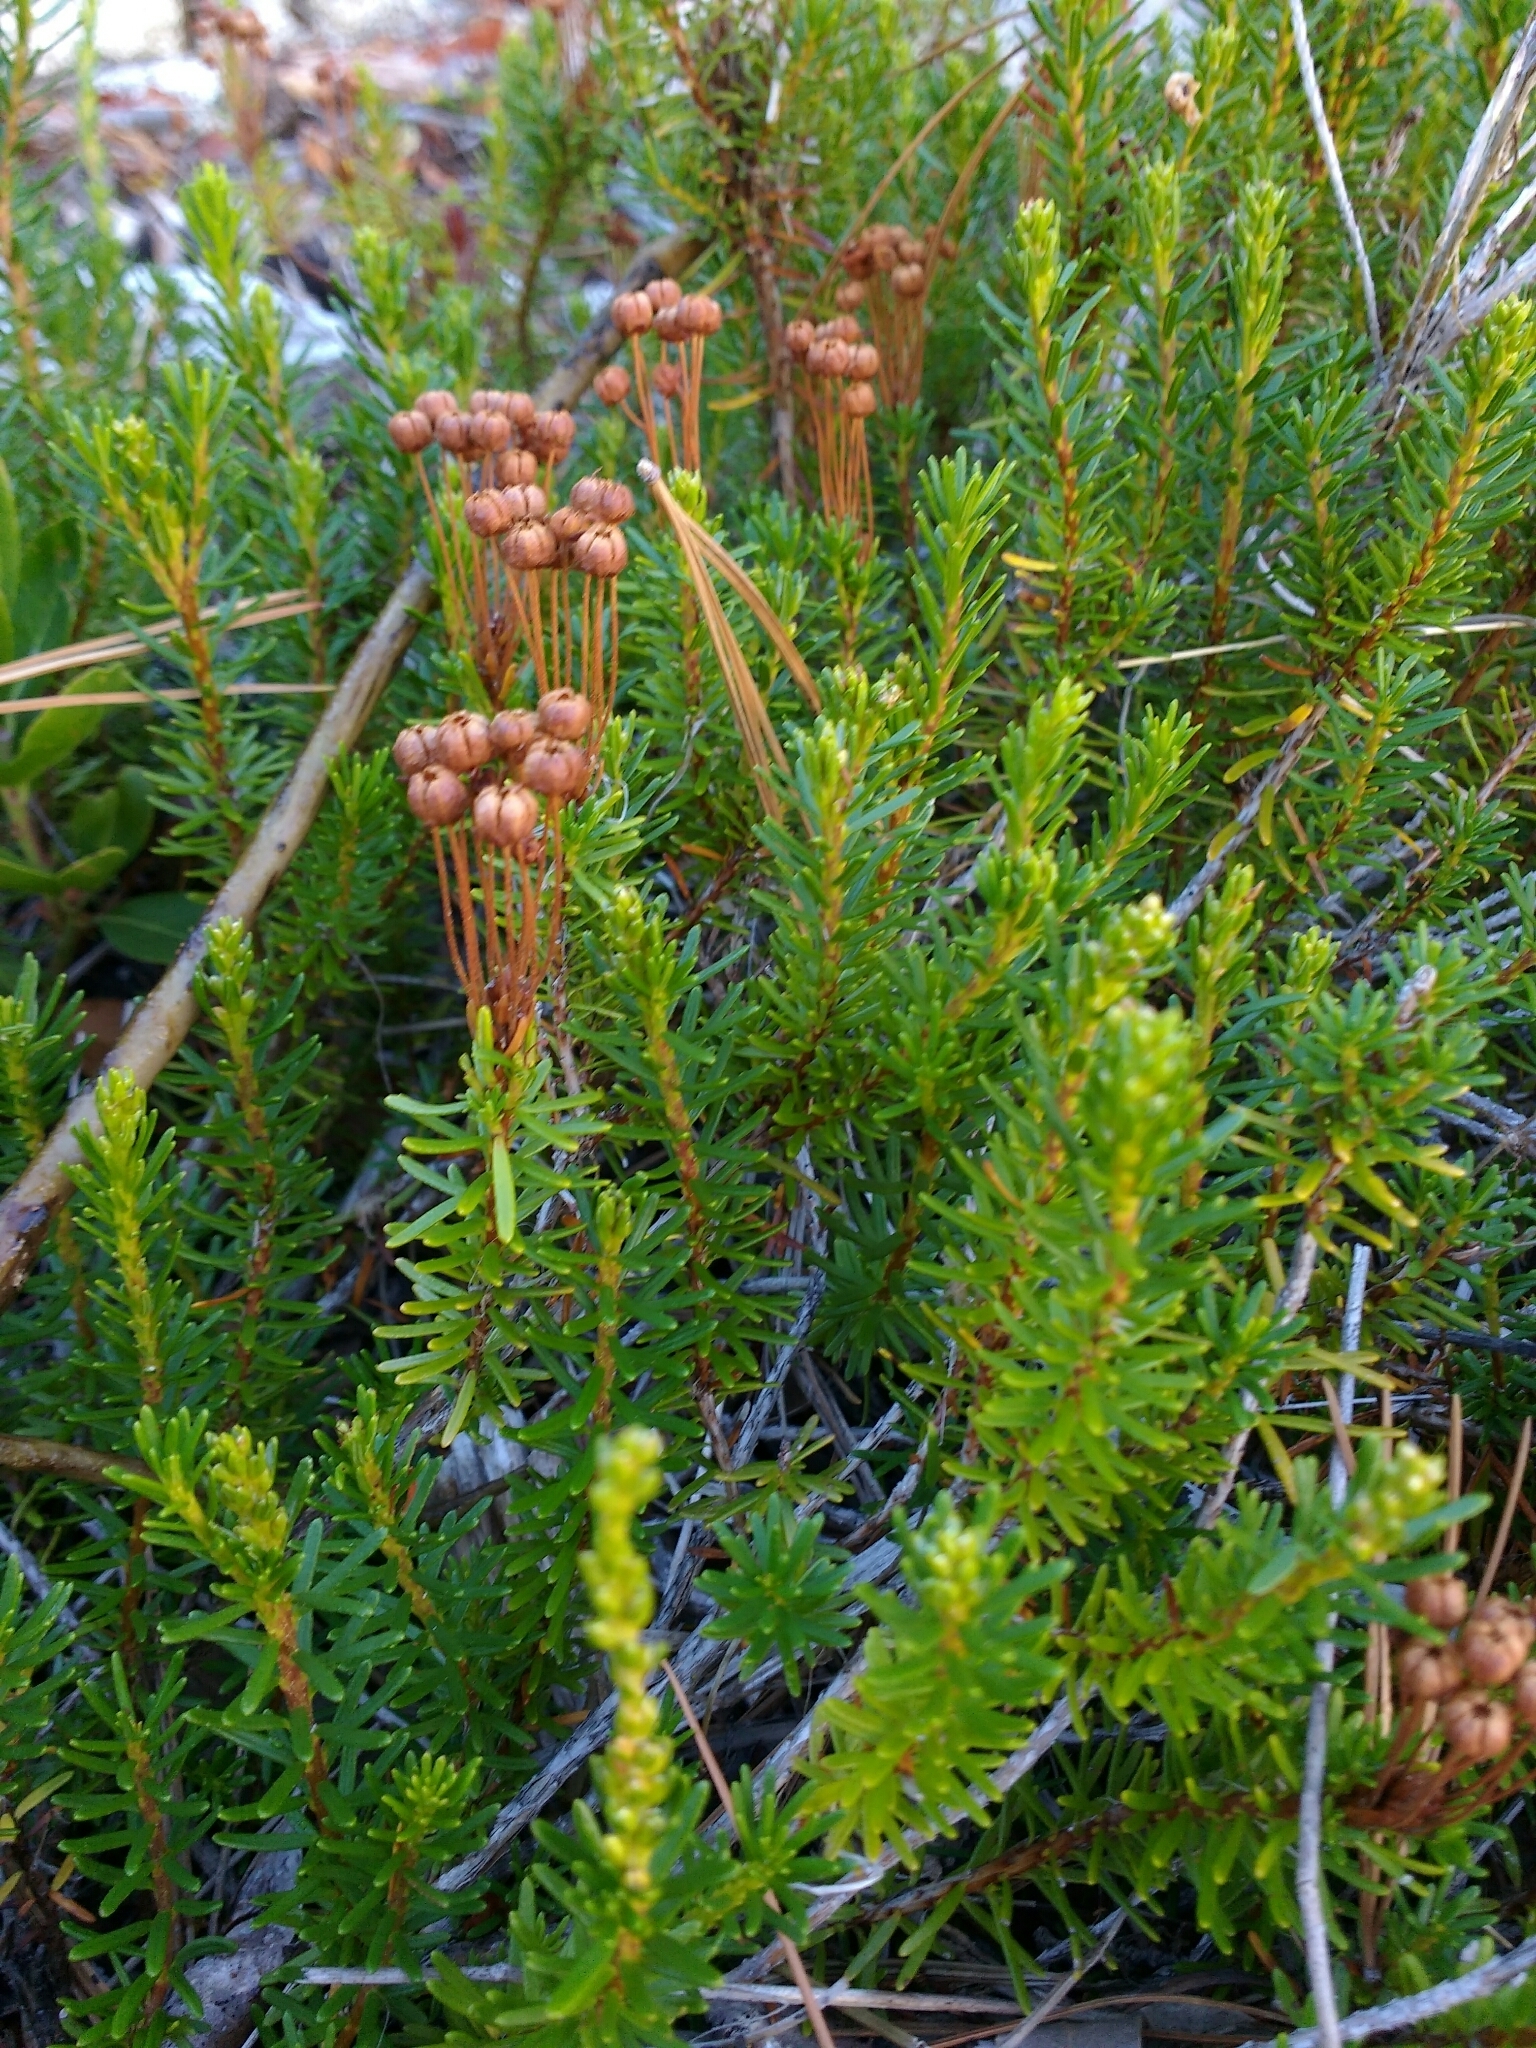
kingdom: Plantae
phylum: Tracheophyta
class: Magnoliopsida
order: Ericales
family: Ericaceae
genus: Phyllodoce
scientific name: Phyllodoce empetriformis
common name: Pink mountain heather
